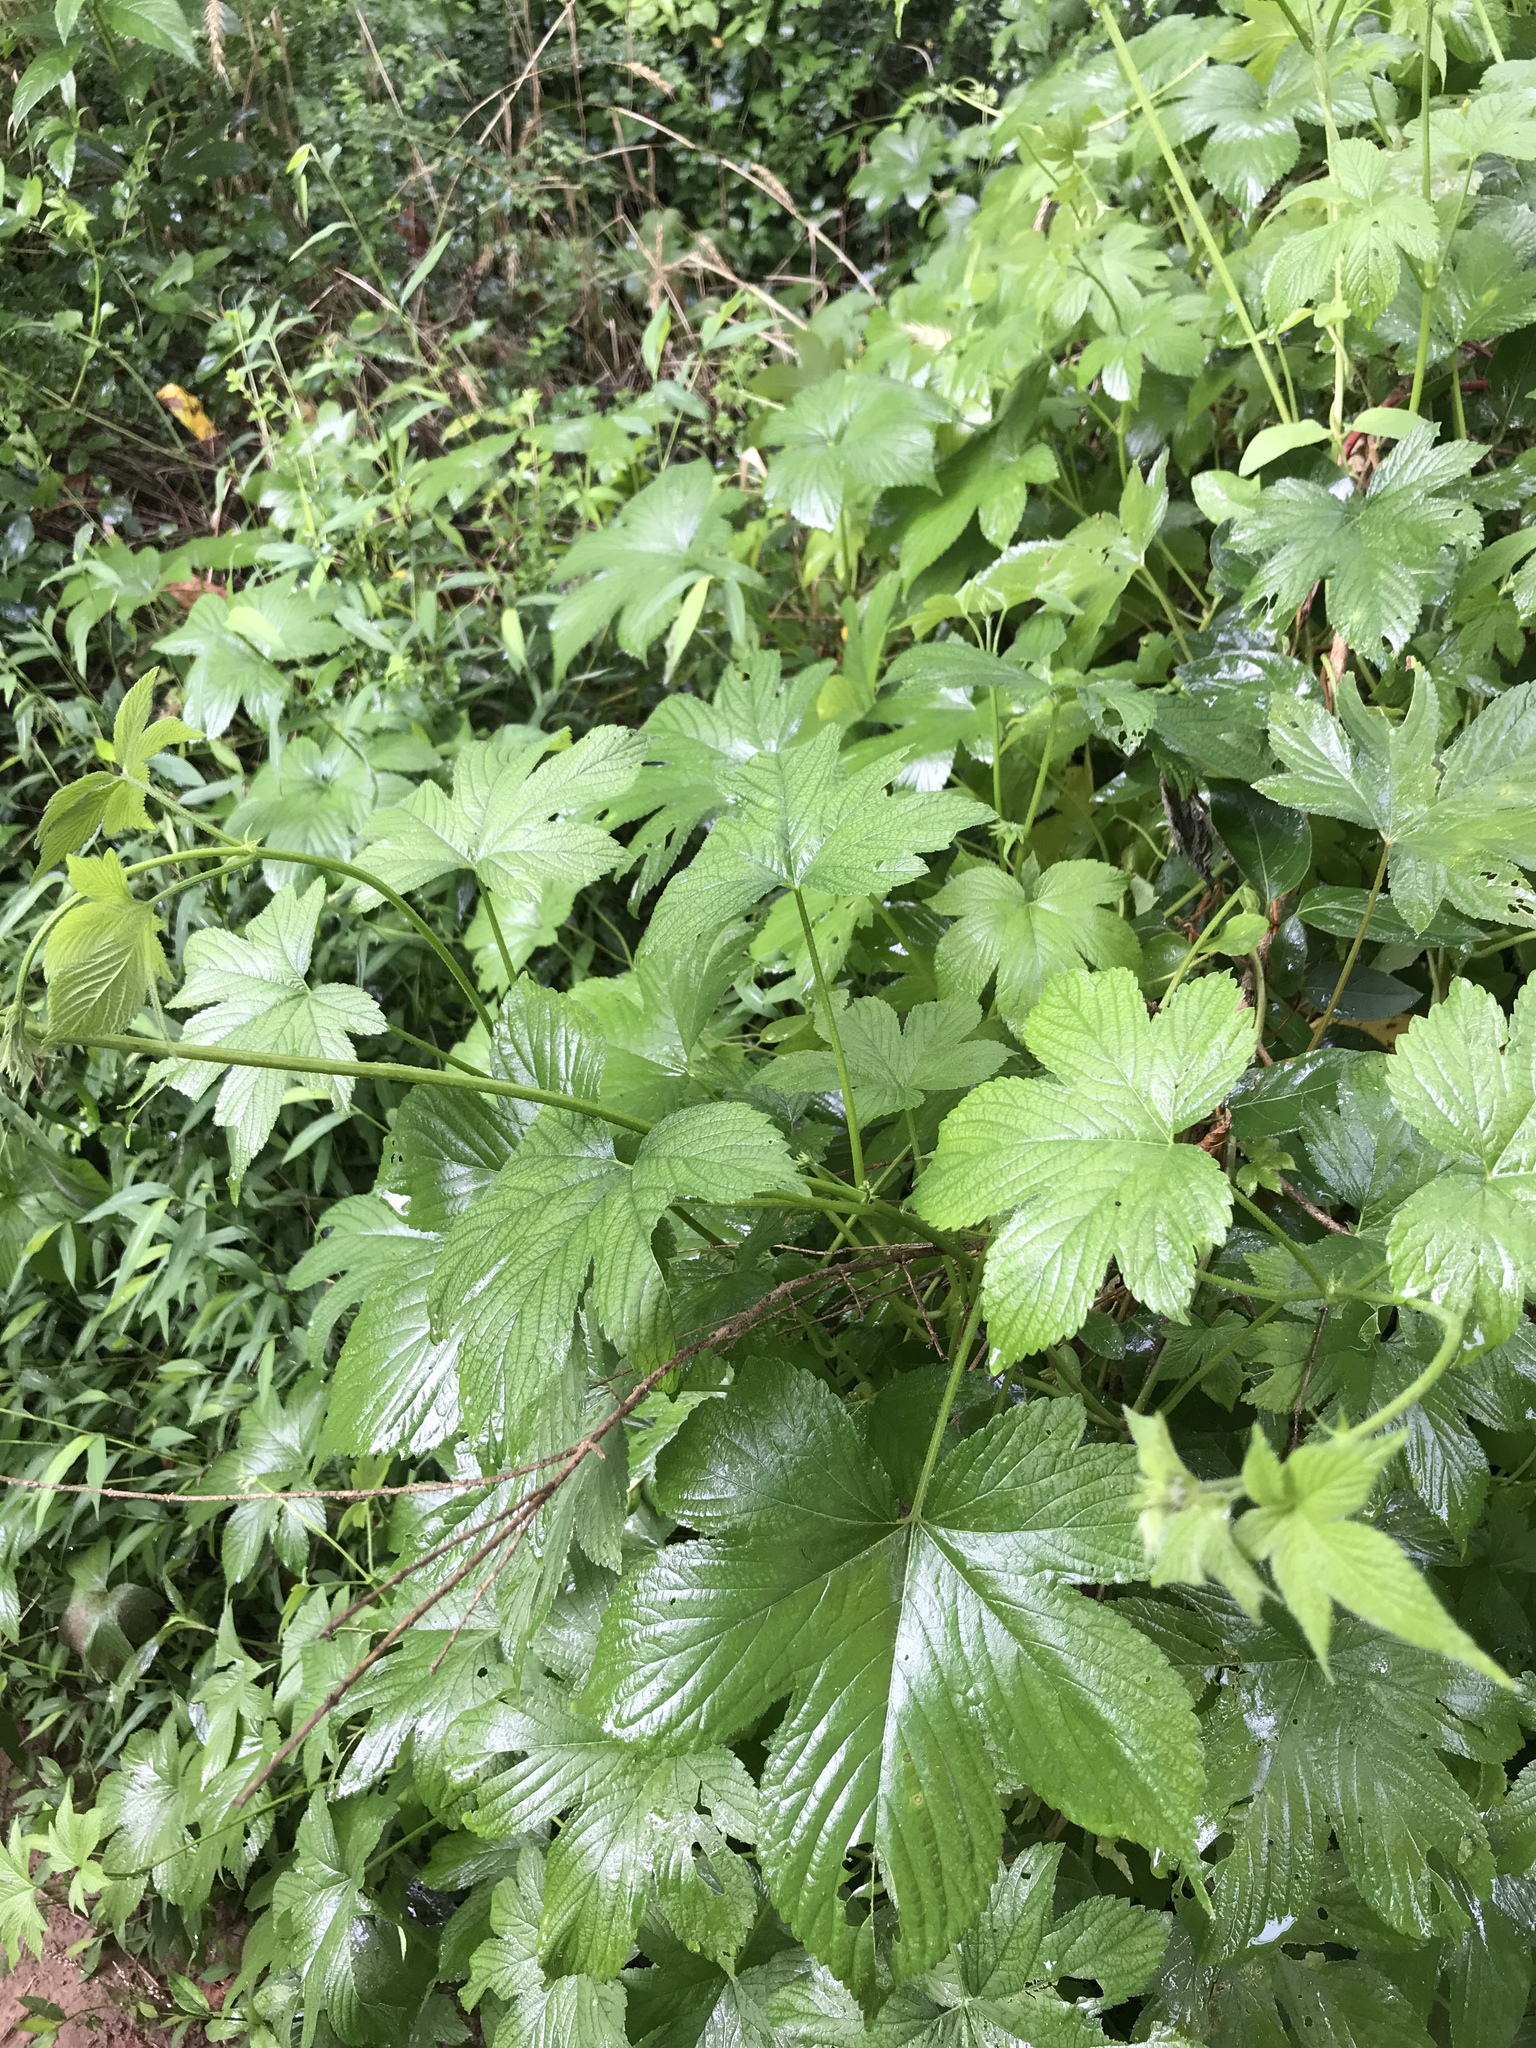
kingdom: Plantae
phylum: Tracheophyta
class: Magnoliopsida
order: Rosales
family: Cannabaceae
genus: Humulus
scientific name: Humulus scandens
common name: Japanese hop
